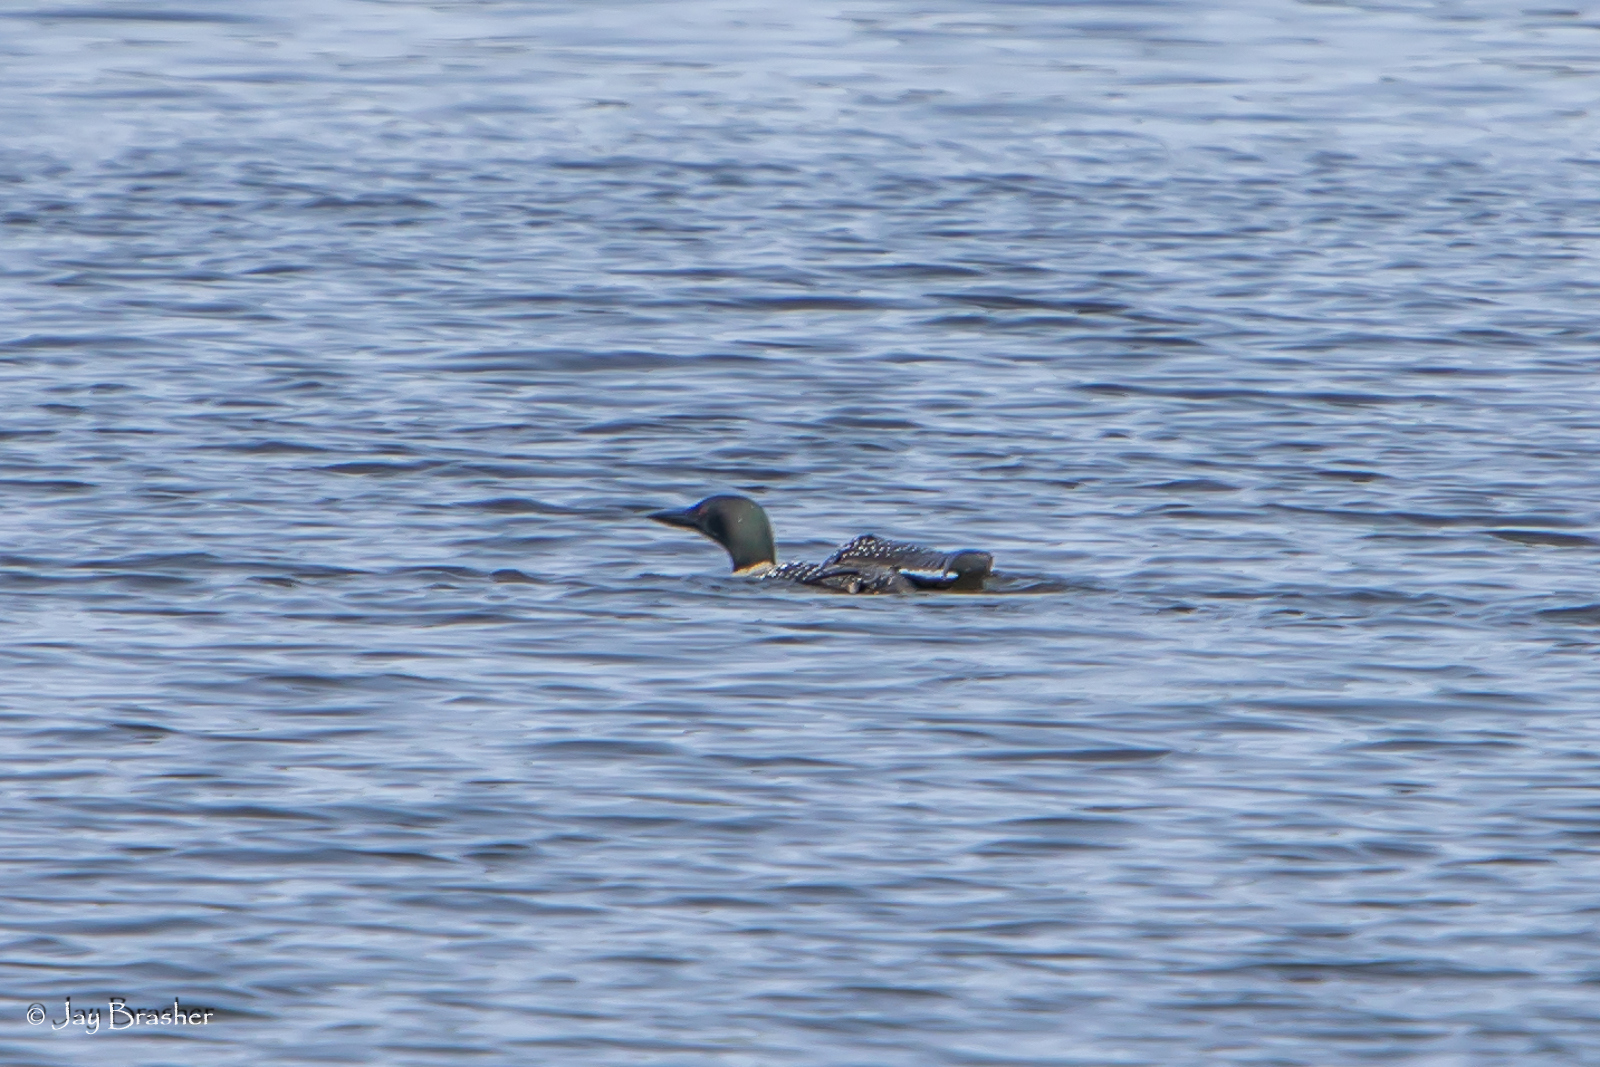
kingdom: Animalia
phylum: Chordata
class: Aves
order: Gaviiformes
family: Gaviidae
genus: Gavia
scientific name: Gavia immer
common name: Common loon
